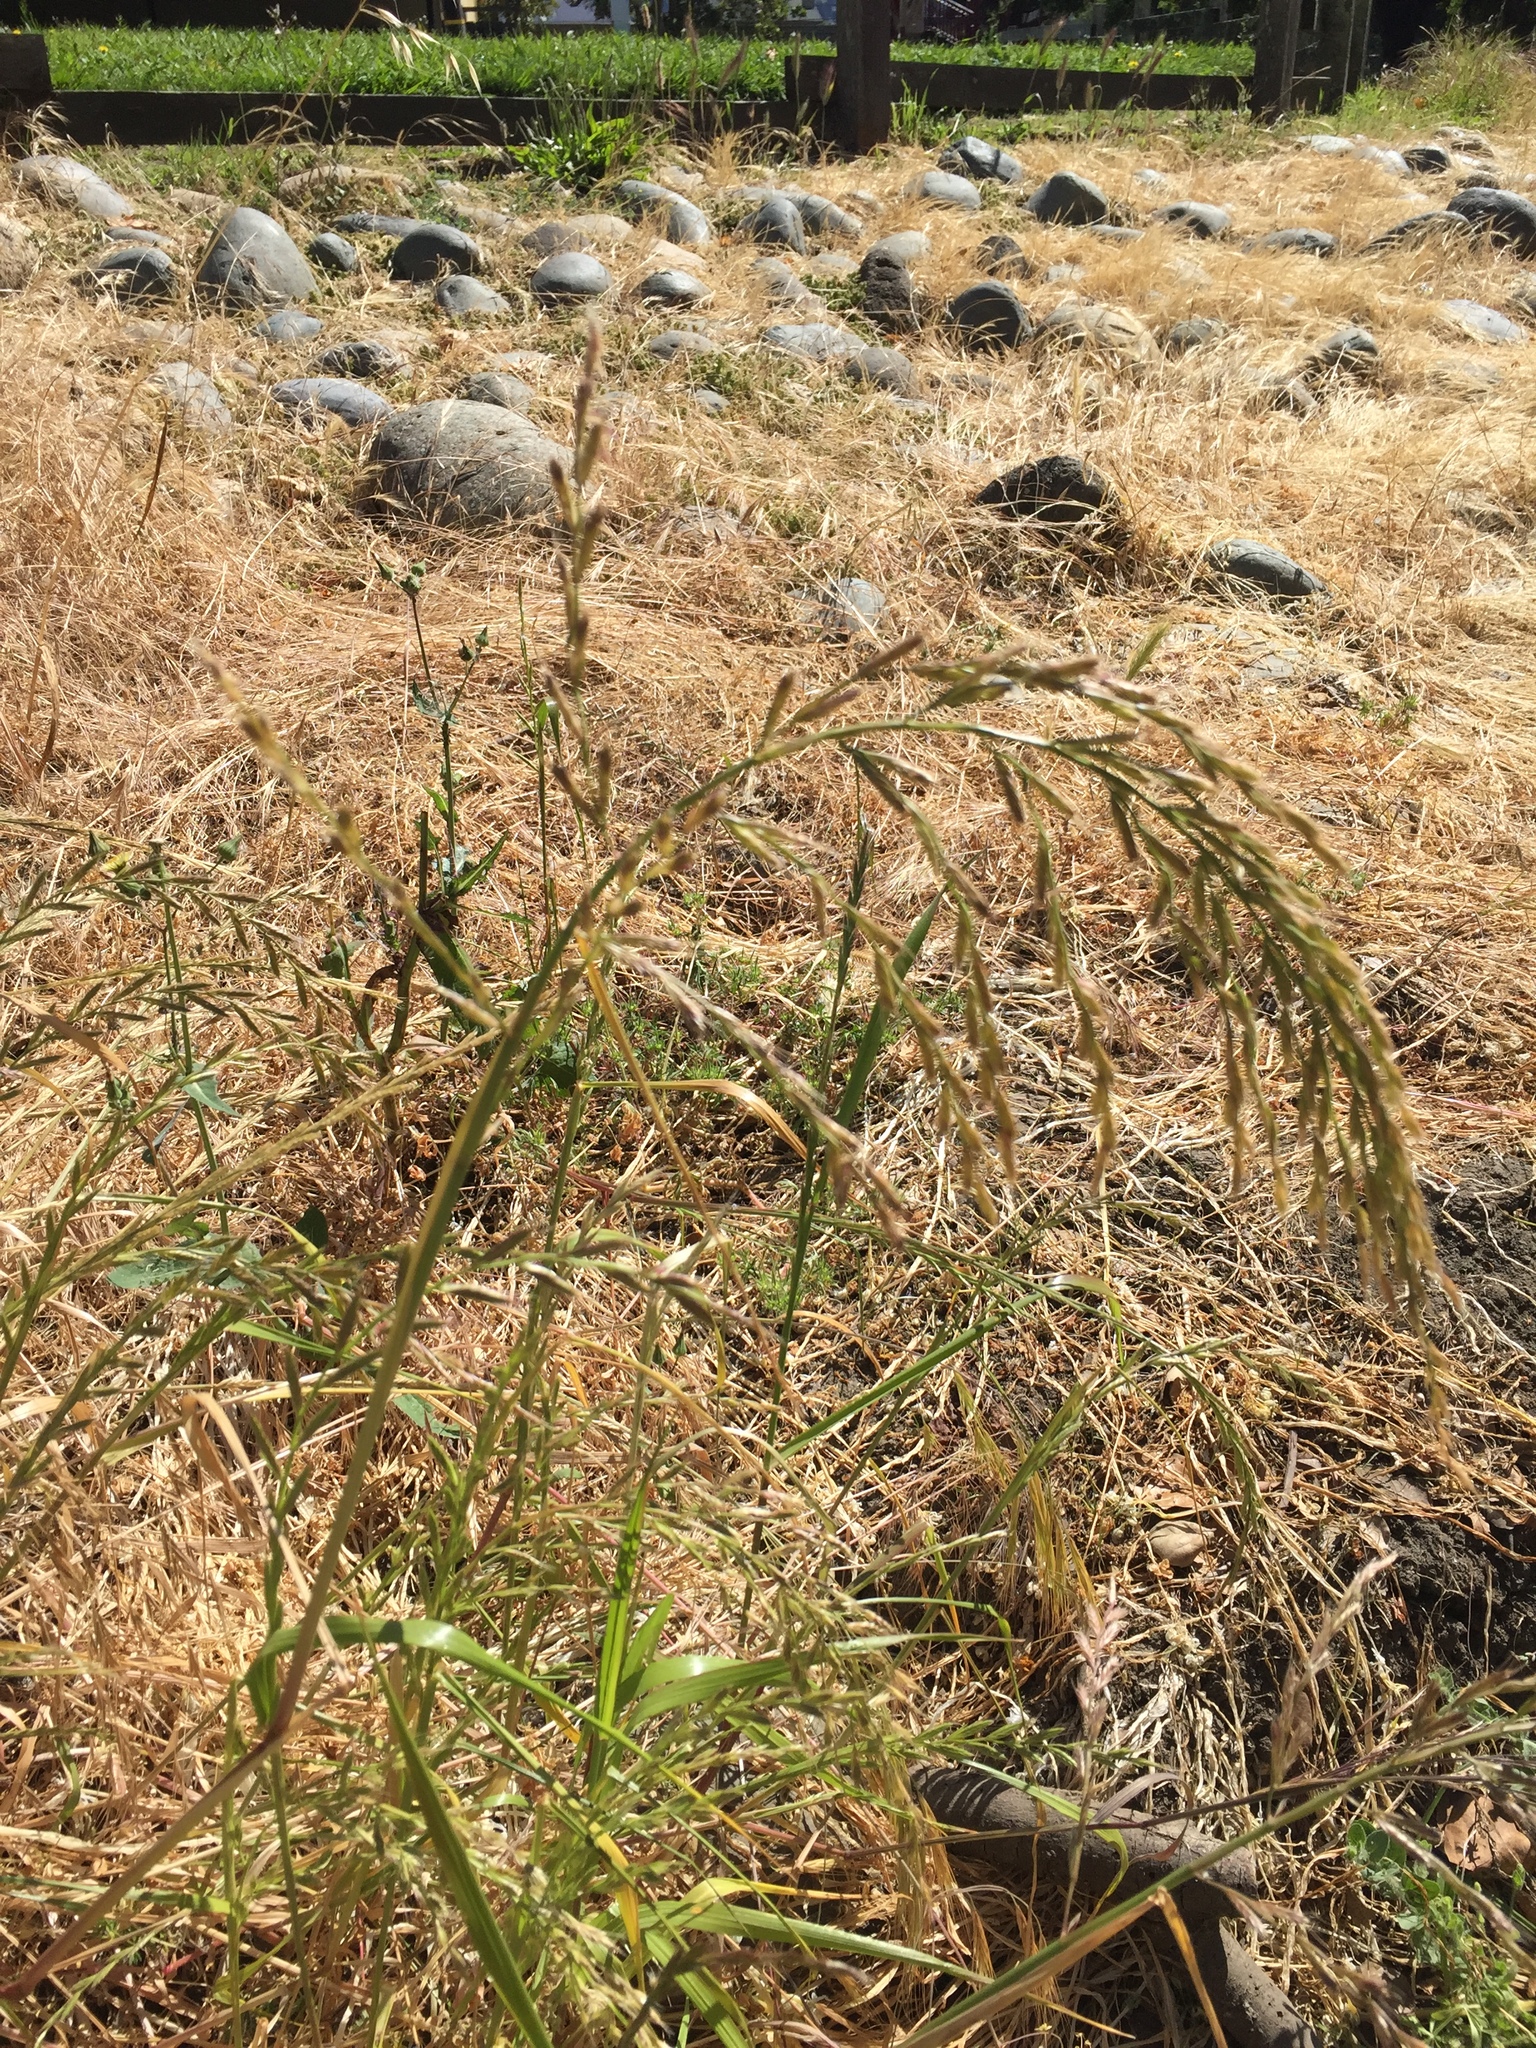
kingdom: Plantae
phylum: Tracheophyta
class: Liliopsida
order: Poales
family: Poaceae
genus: Lolium
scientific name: Lolium perenne
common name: Perennial ryegrass
